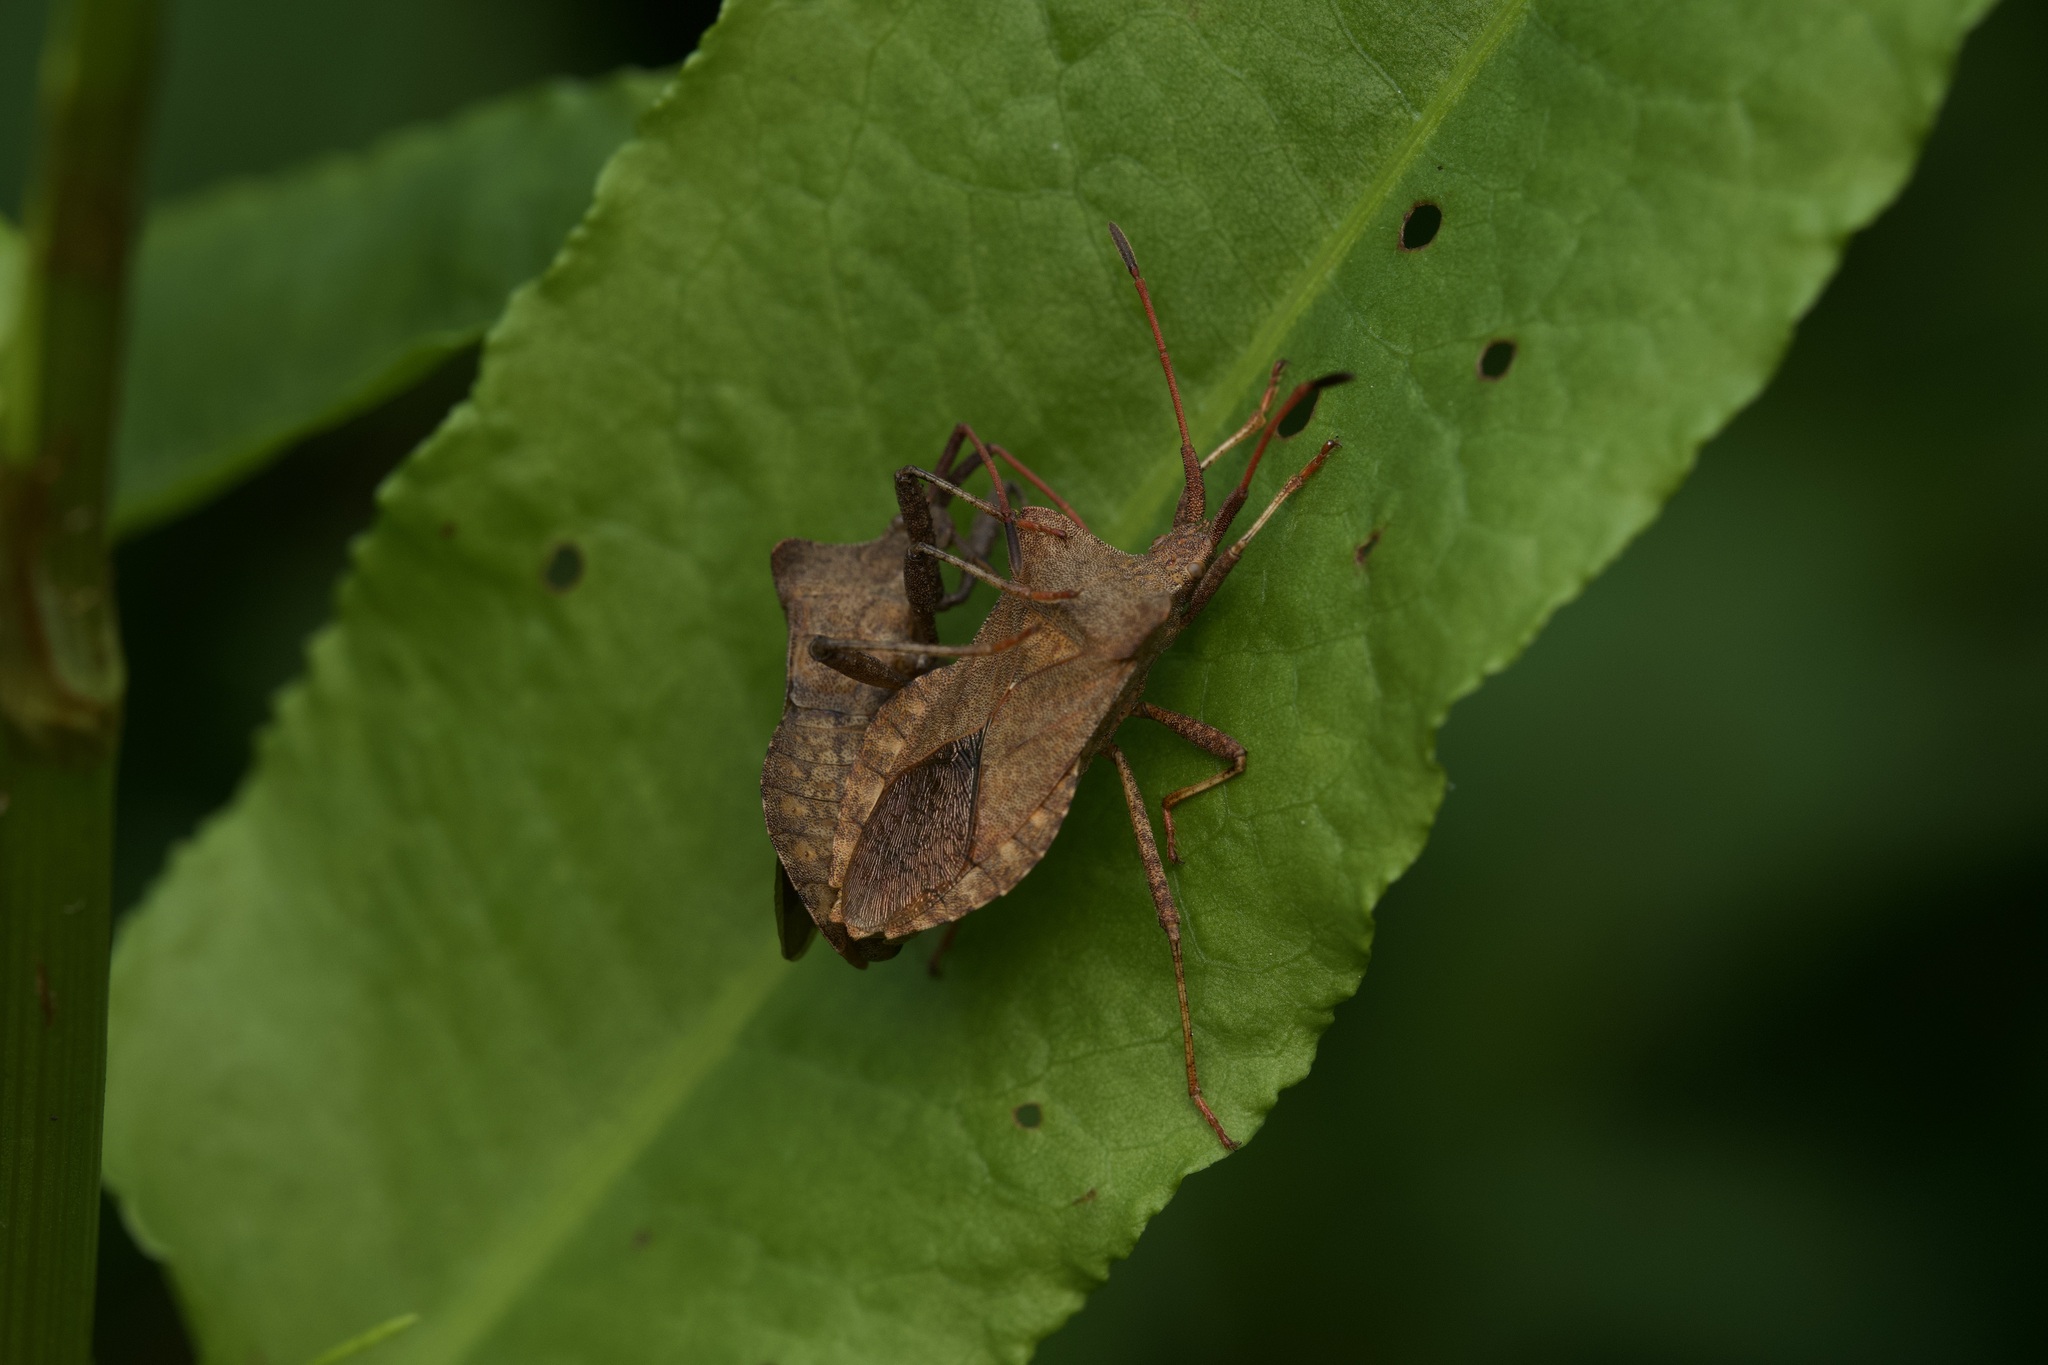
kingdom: Animalia
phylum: Arthropoda
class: Insecta
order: Hemiptera
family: Coreidae
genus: Coreus
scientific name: Coreus marginatus
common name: Dock bug
